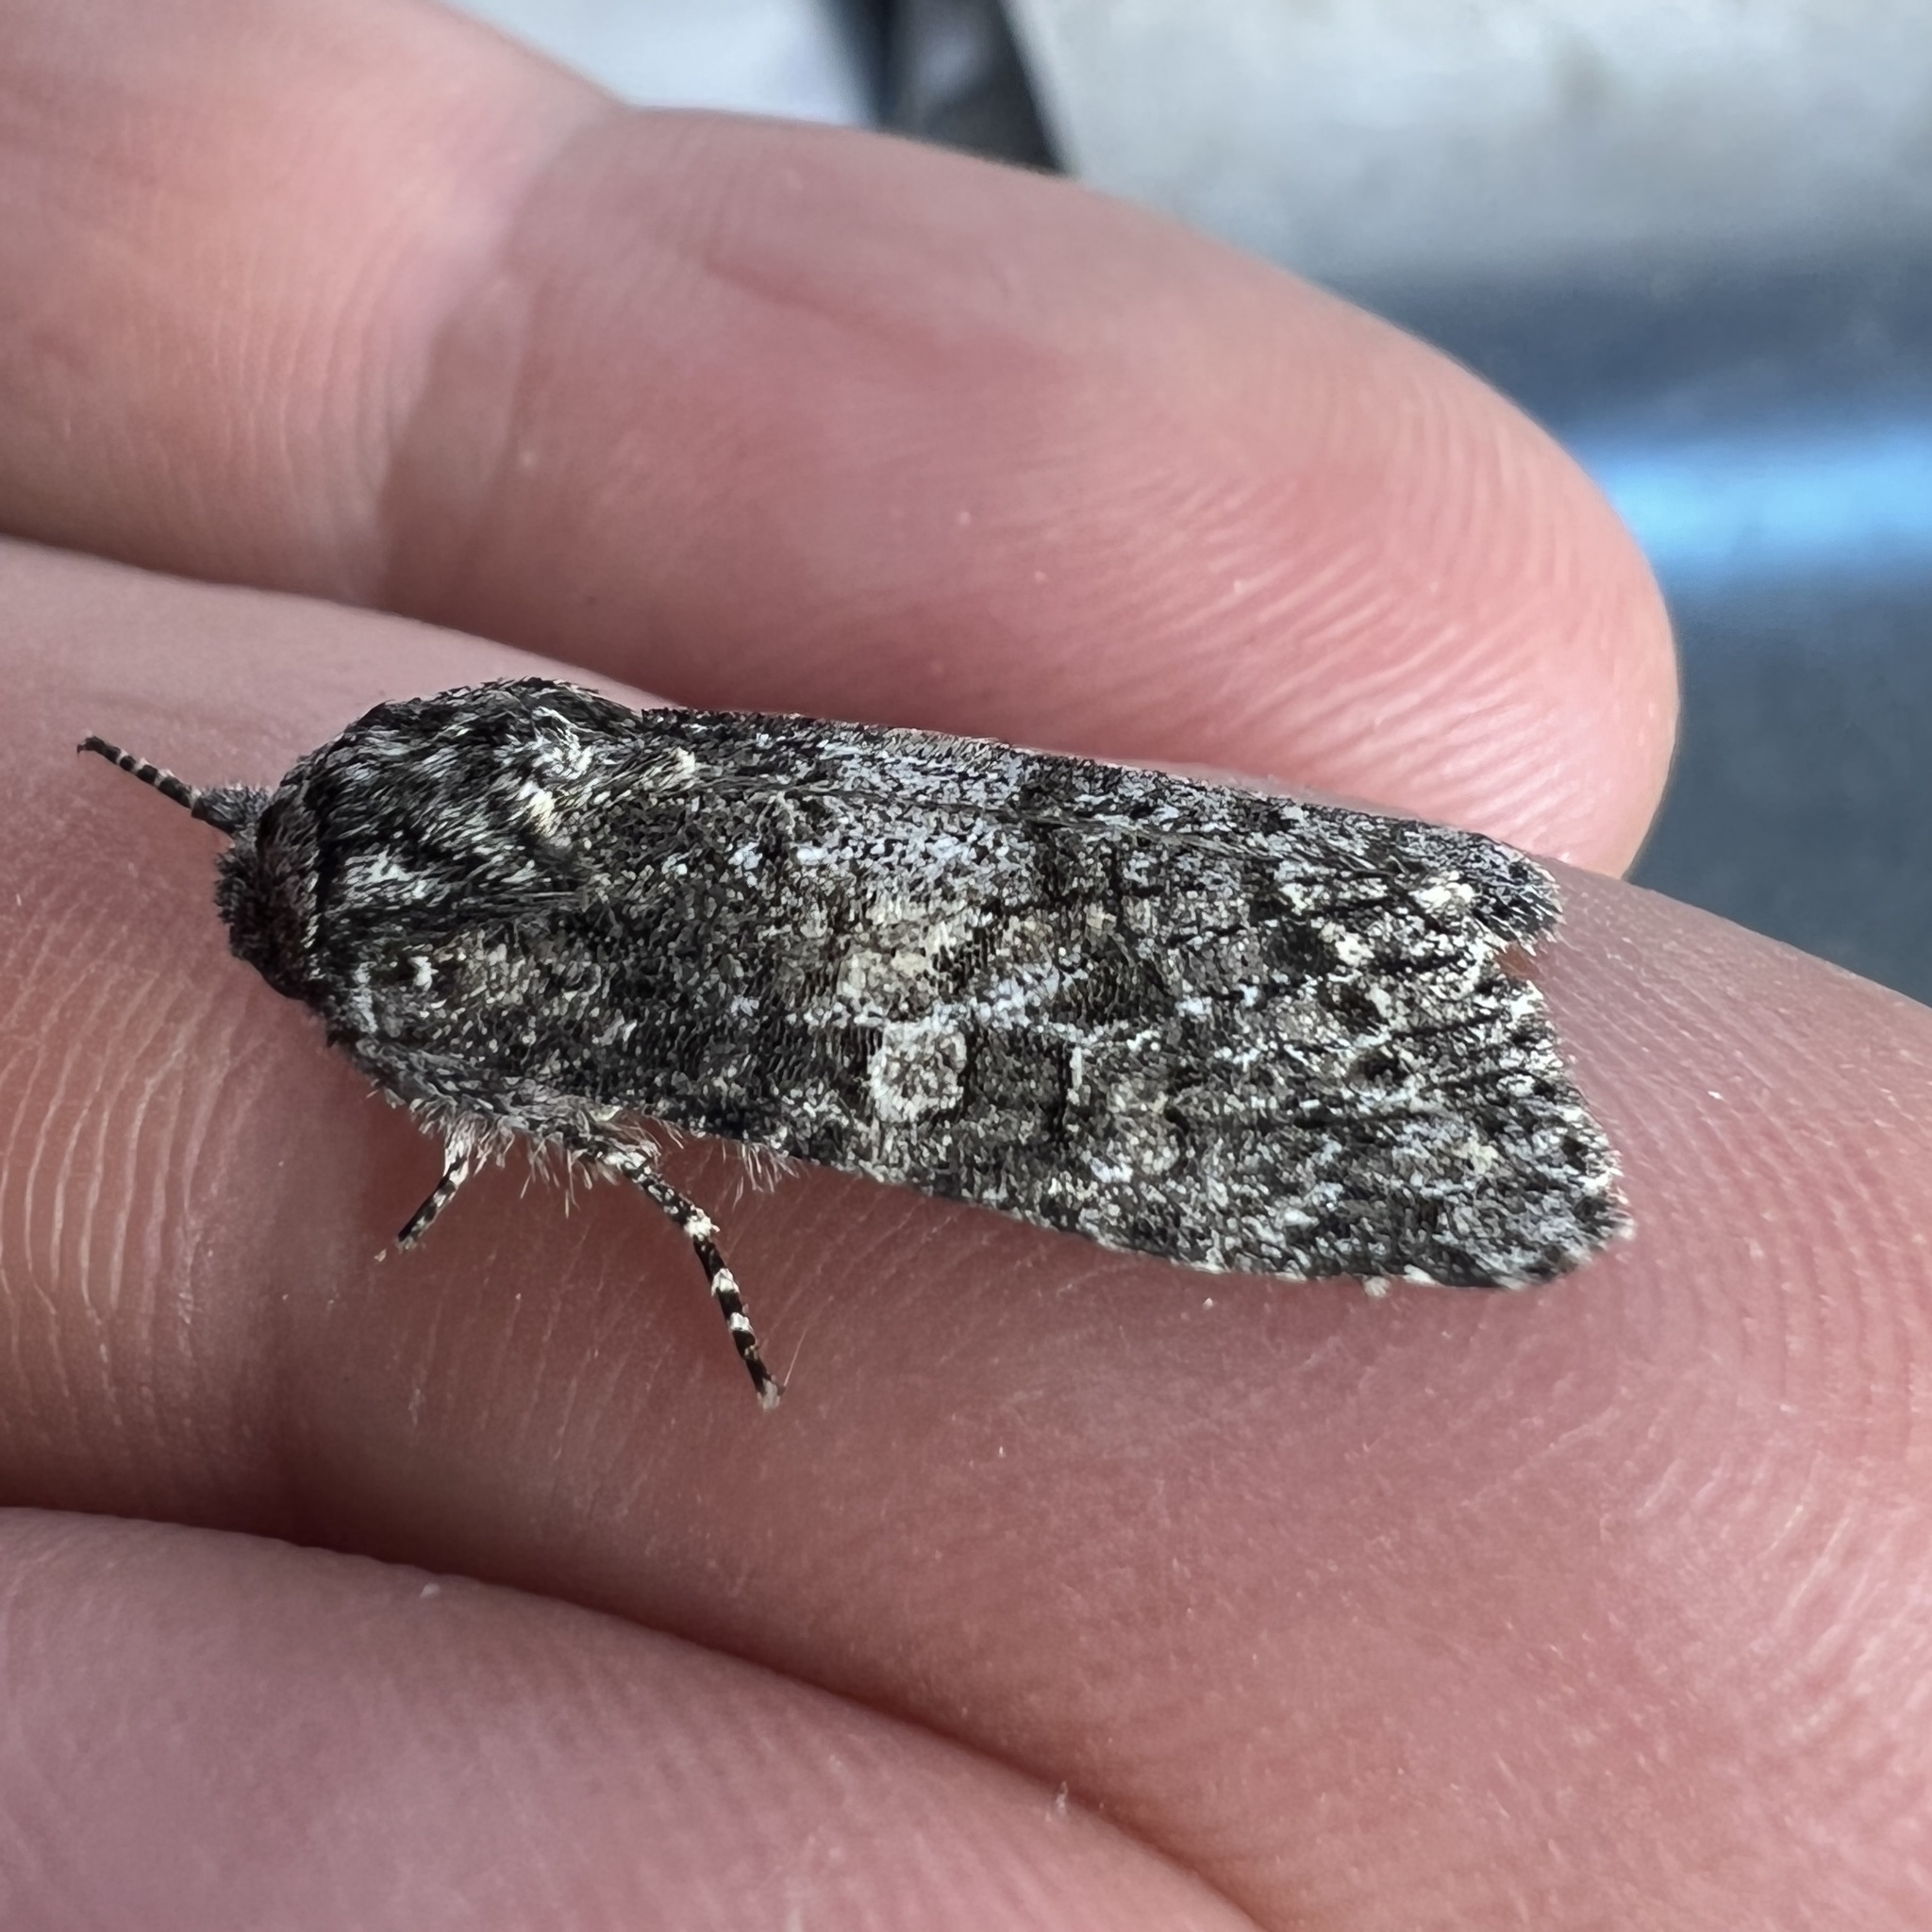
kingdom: Animalia
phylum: Arthropoda
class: Insecta
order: Lepidoptera
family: Noctuidae
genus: Egira
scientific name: Egira dolosa
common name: Lined black aspen cat.
